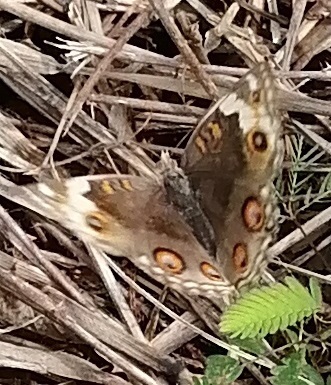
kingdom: Animalia
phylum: Arthropoda
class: Insecta
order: Lepidoptera
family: Nymphalidae
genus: Junonia
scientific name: Junonia orithya
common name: Blue pansy
